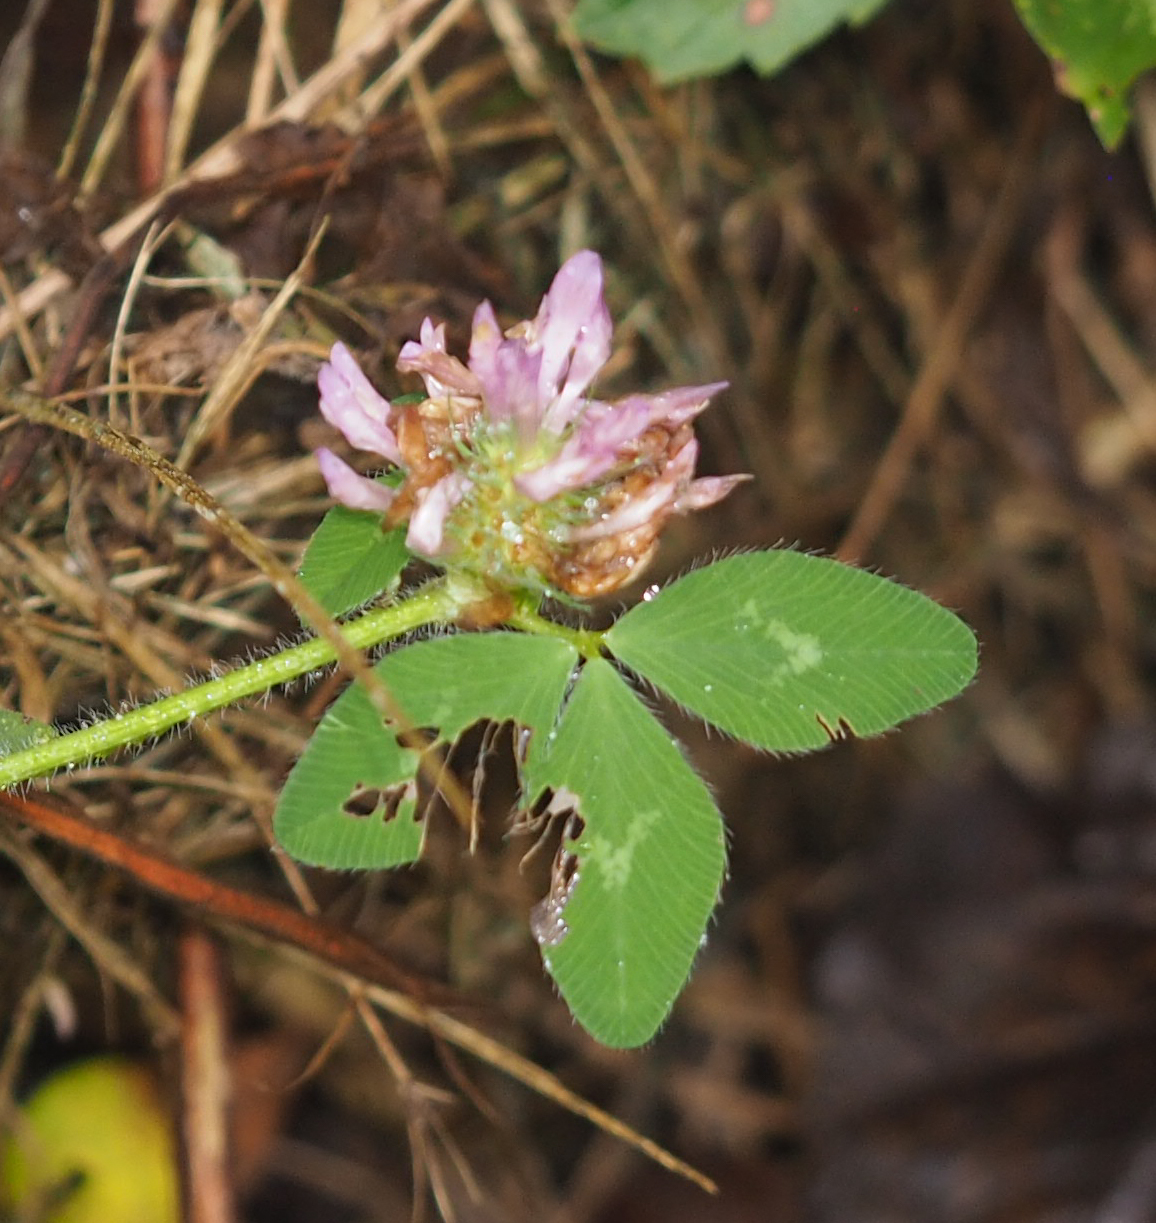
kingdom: Plantae
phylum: Tracheophyta
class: Magnoliopsida
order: Fabales
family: Fabaceae
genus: Trifolium
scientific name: Trifolium pratense
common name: Red clover
